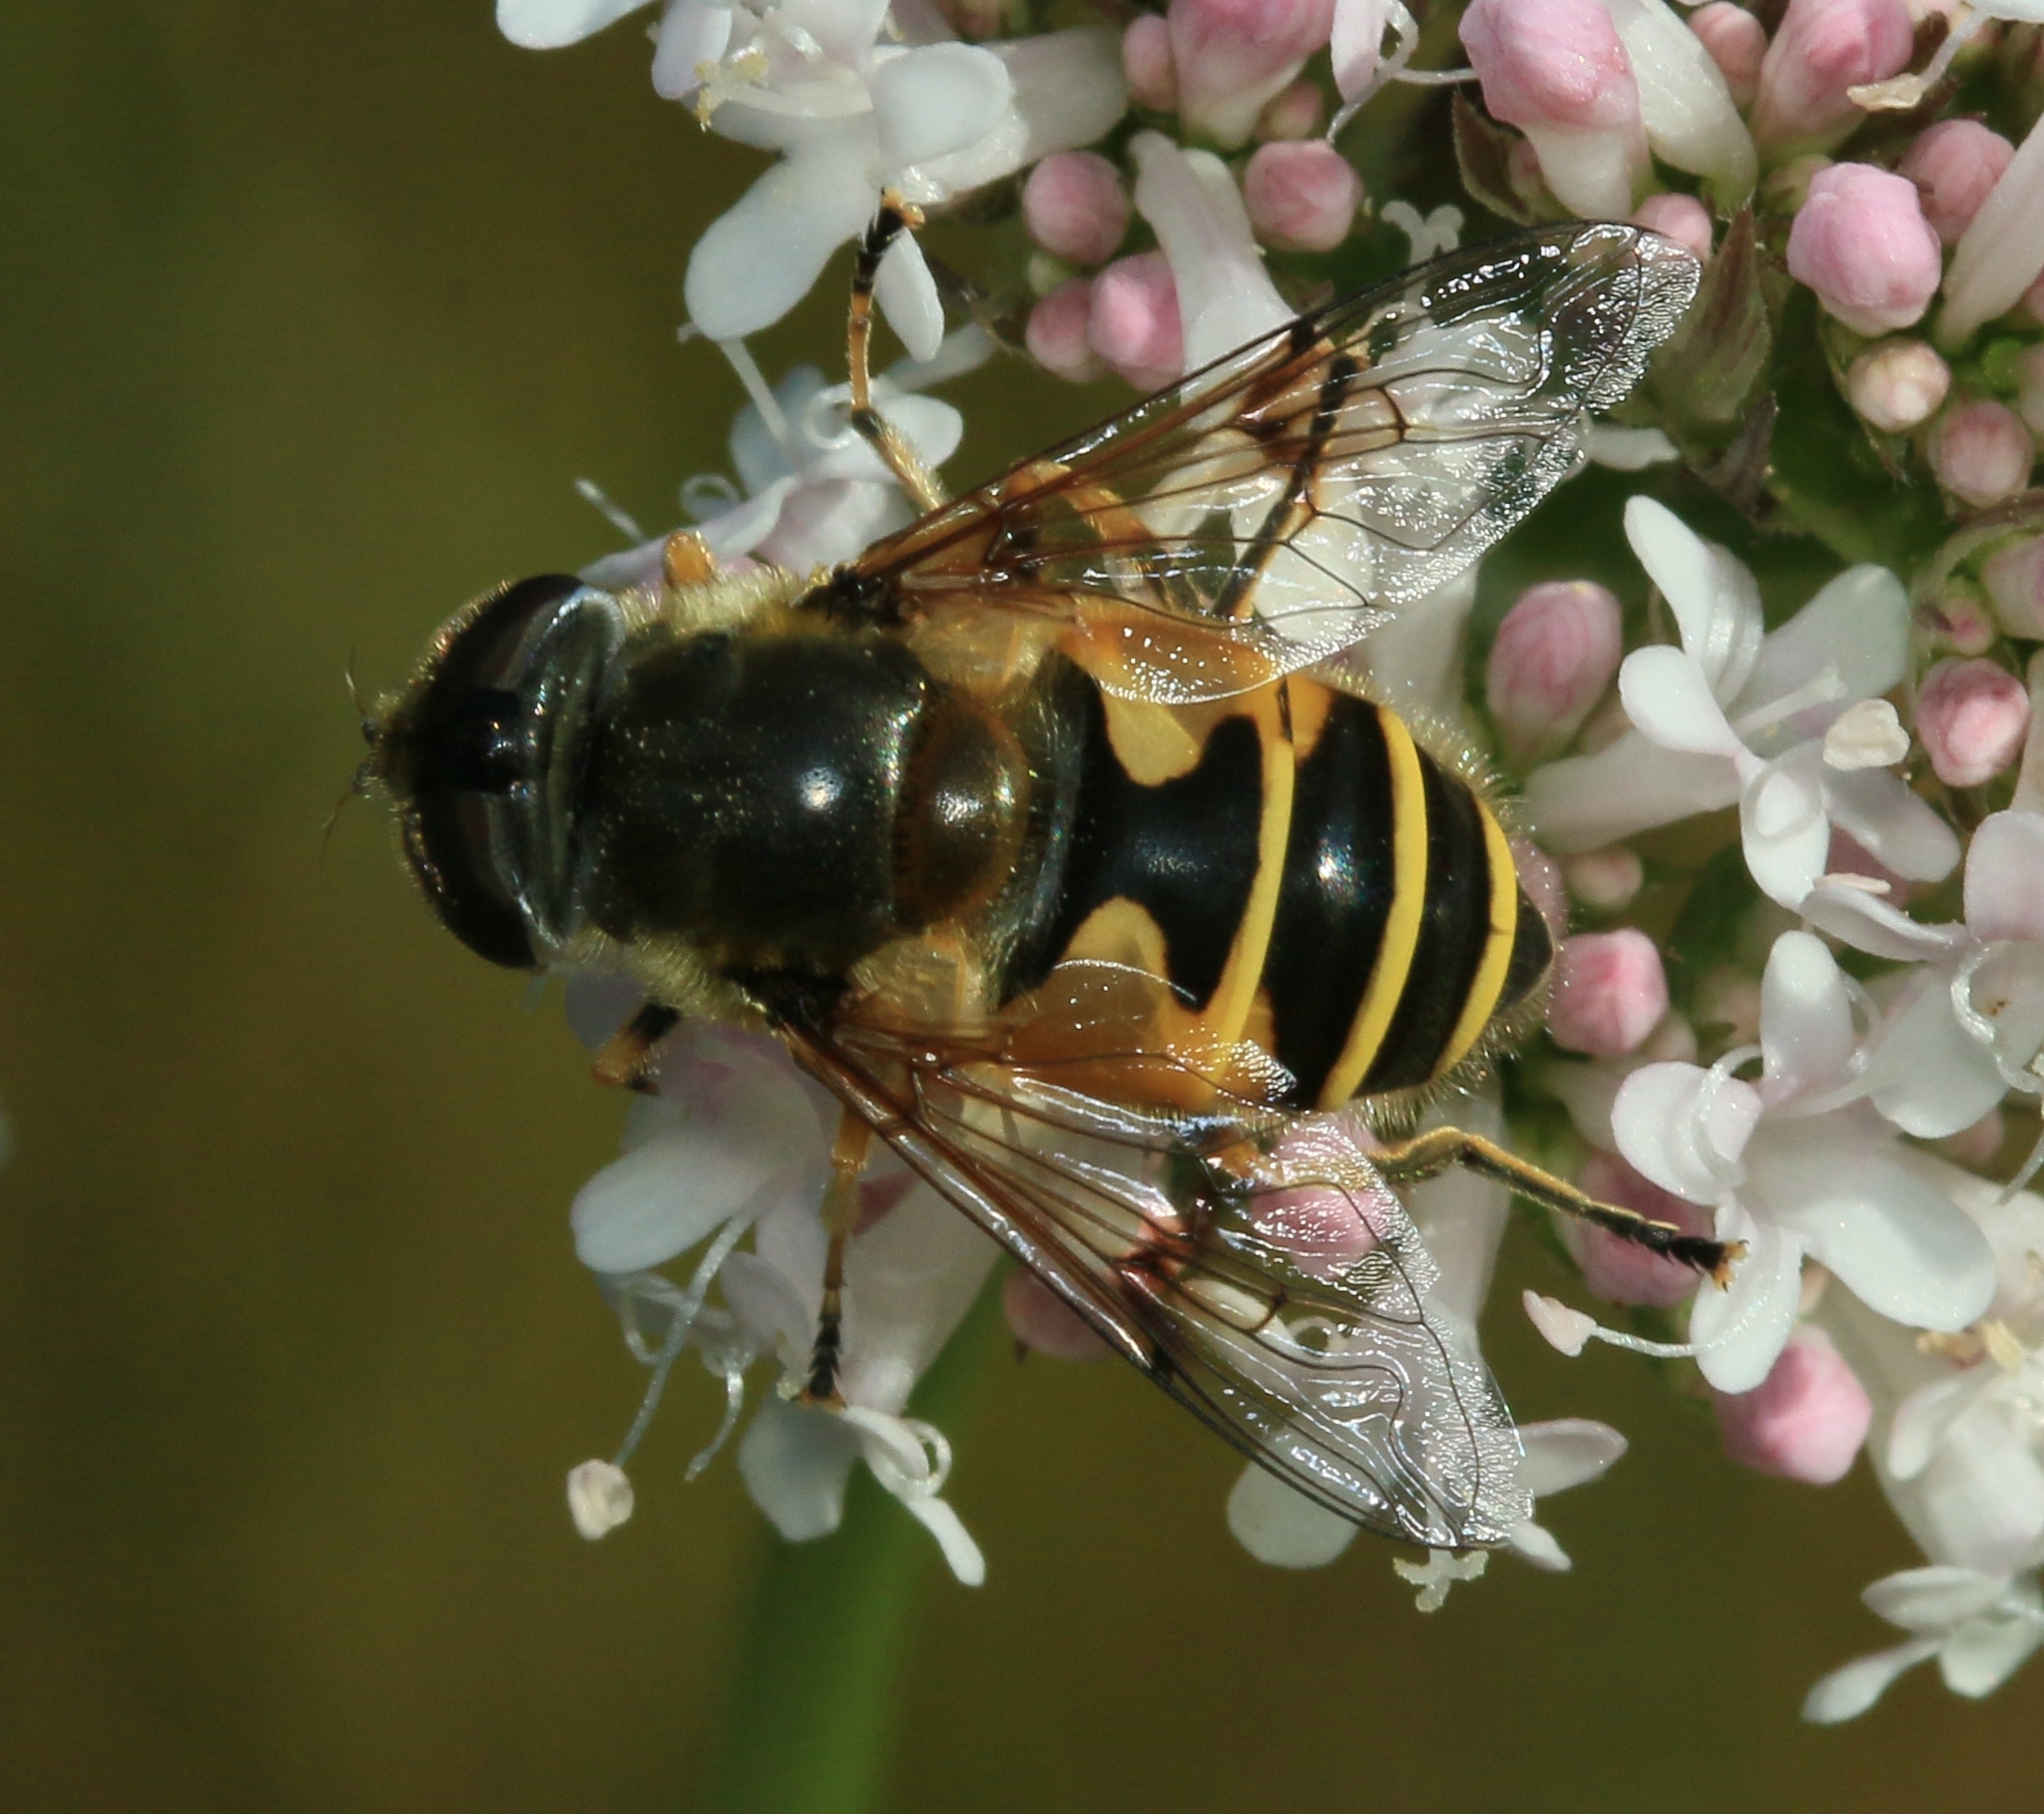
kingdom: Animalia
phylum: Arthropoda
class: Insecta
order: Diptera
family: Syrphidae
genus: Cheilosia
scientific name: Cheilosia morio
